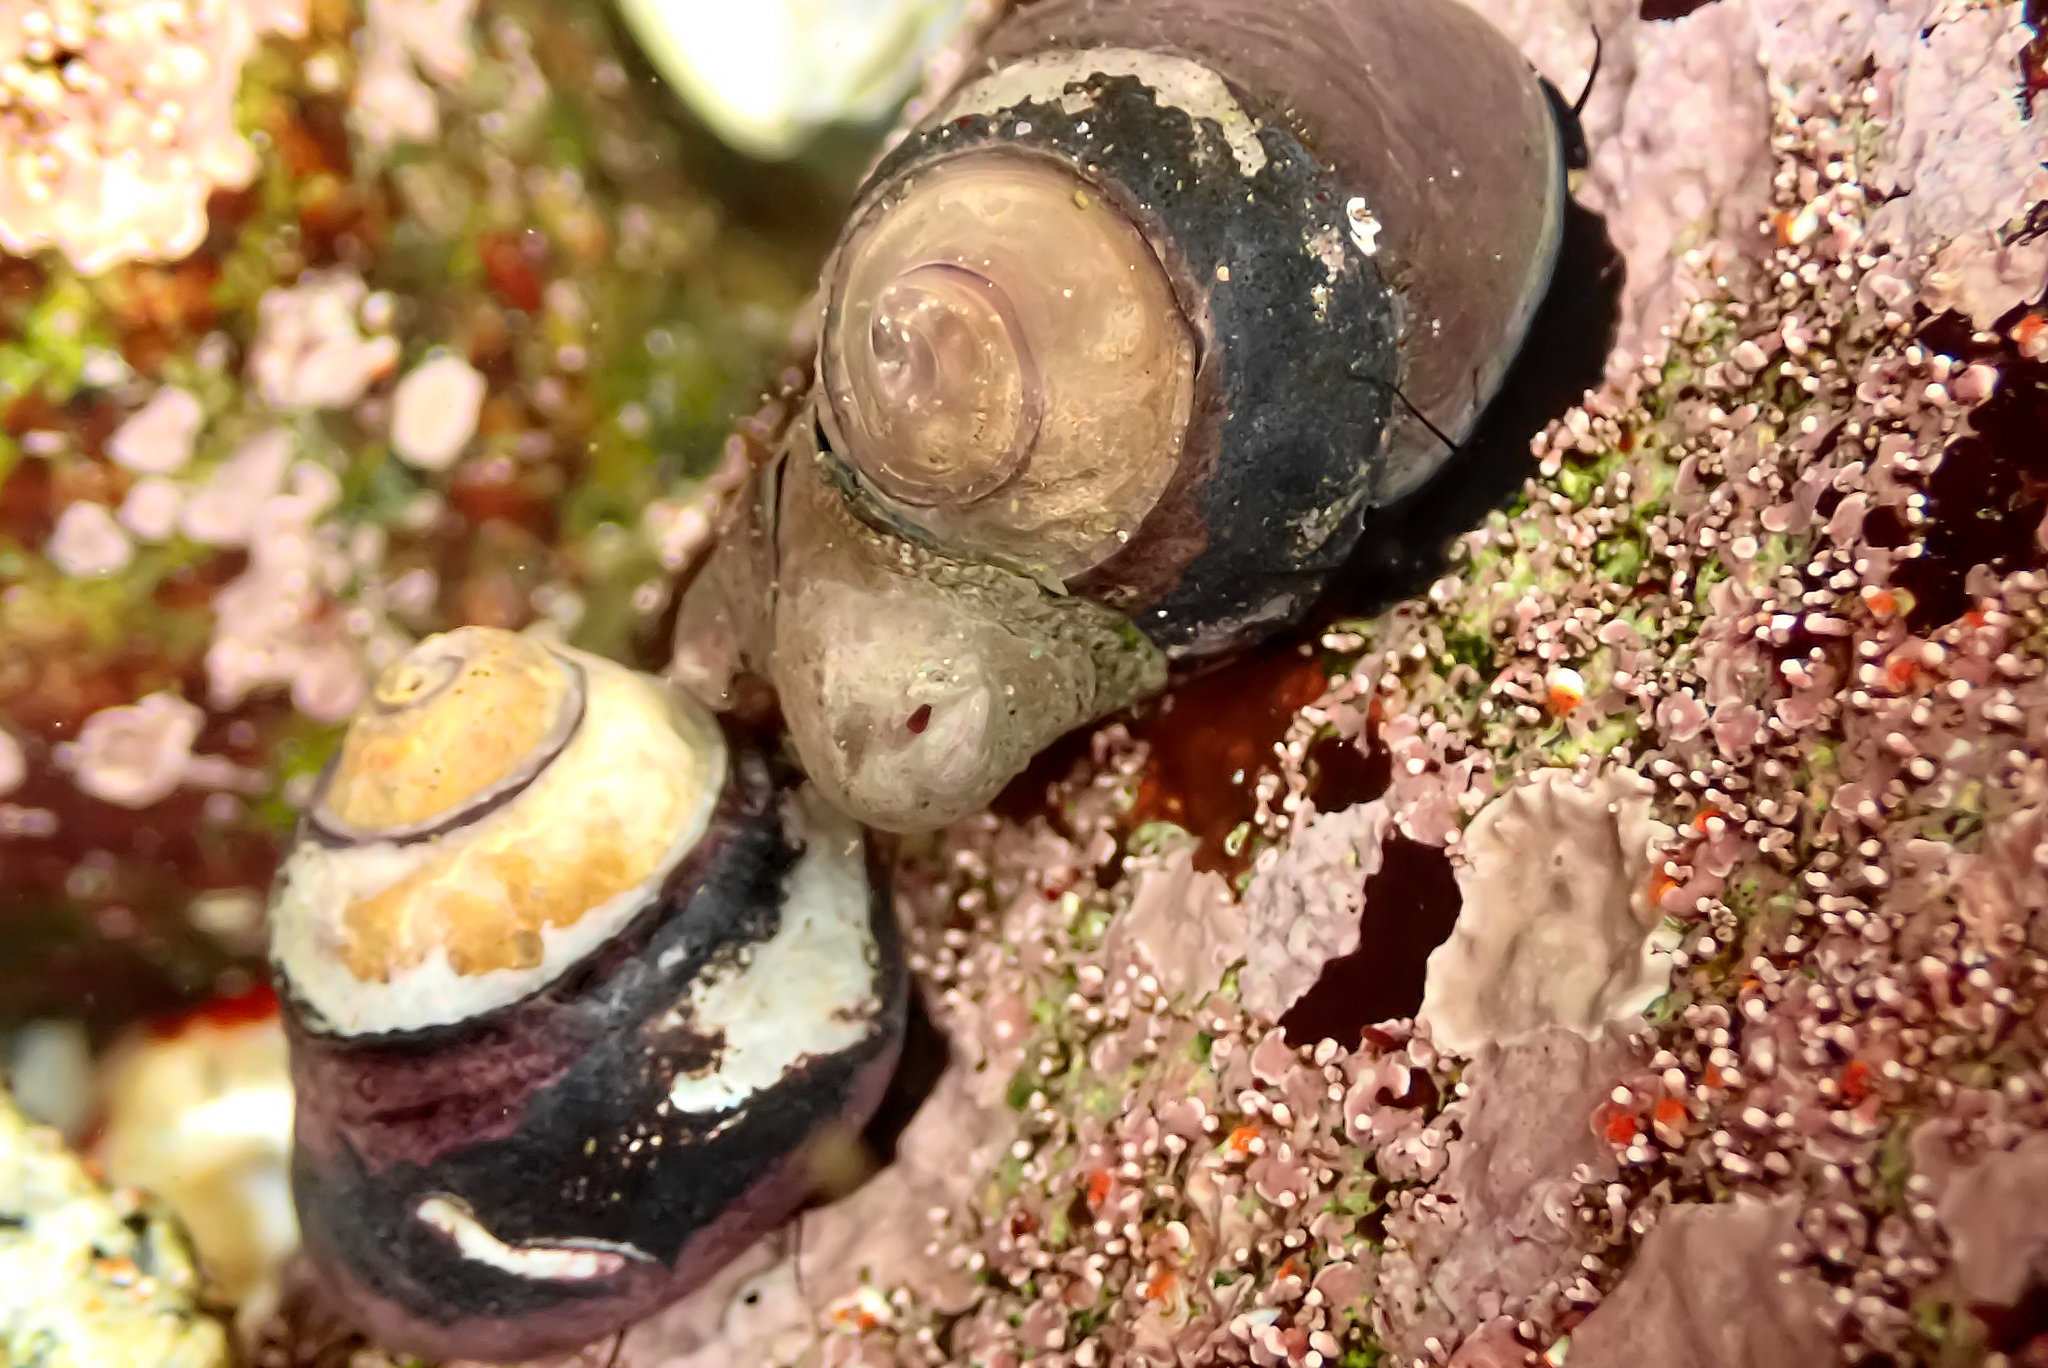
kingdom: Animalia
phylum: Mollusca
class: Gastropoda
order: Trochida
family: Tegulidae
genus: Tegula
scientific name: Tegula funebralis
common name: Black tegula
